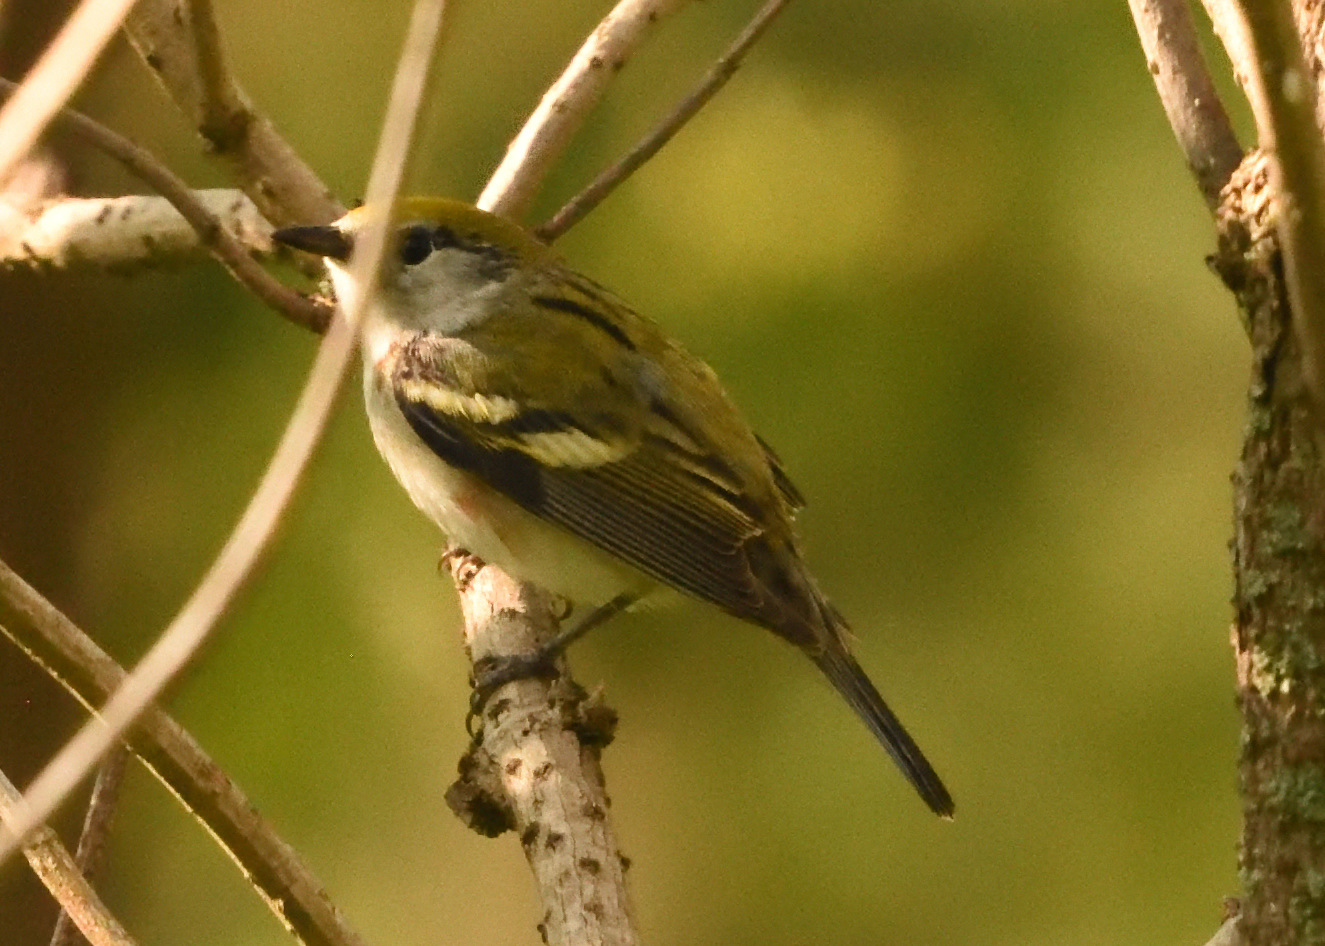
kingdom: Animalia
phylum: Chordata
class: Aves
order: Passeriformes
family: Parulidae
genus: Setophaga
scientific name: Setophaga pensylvanica
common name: Chestnut-sided warbler
